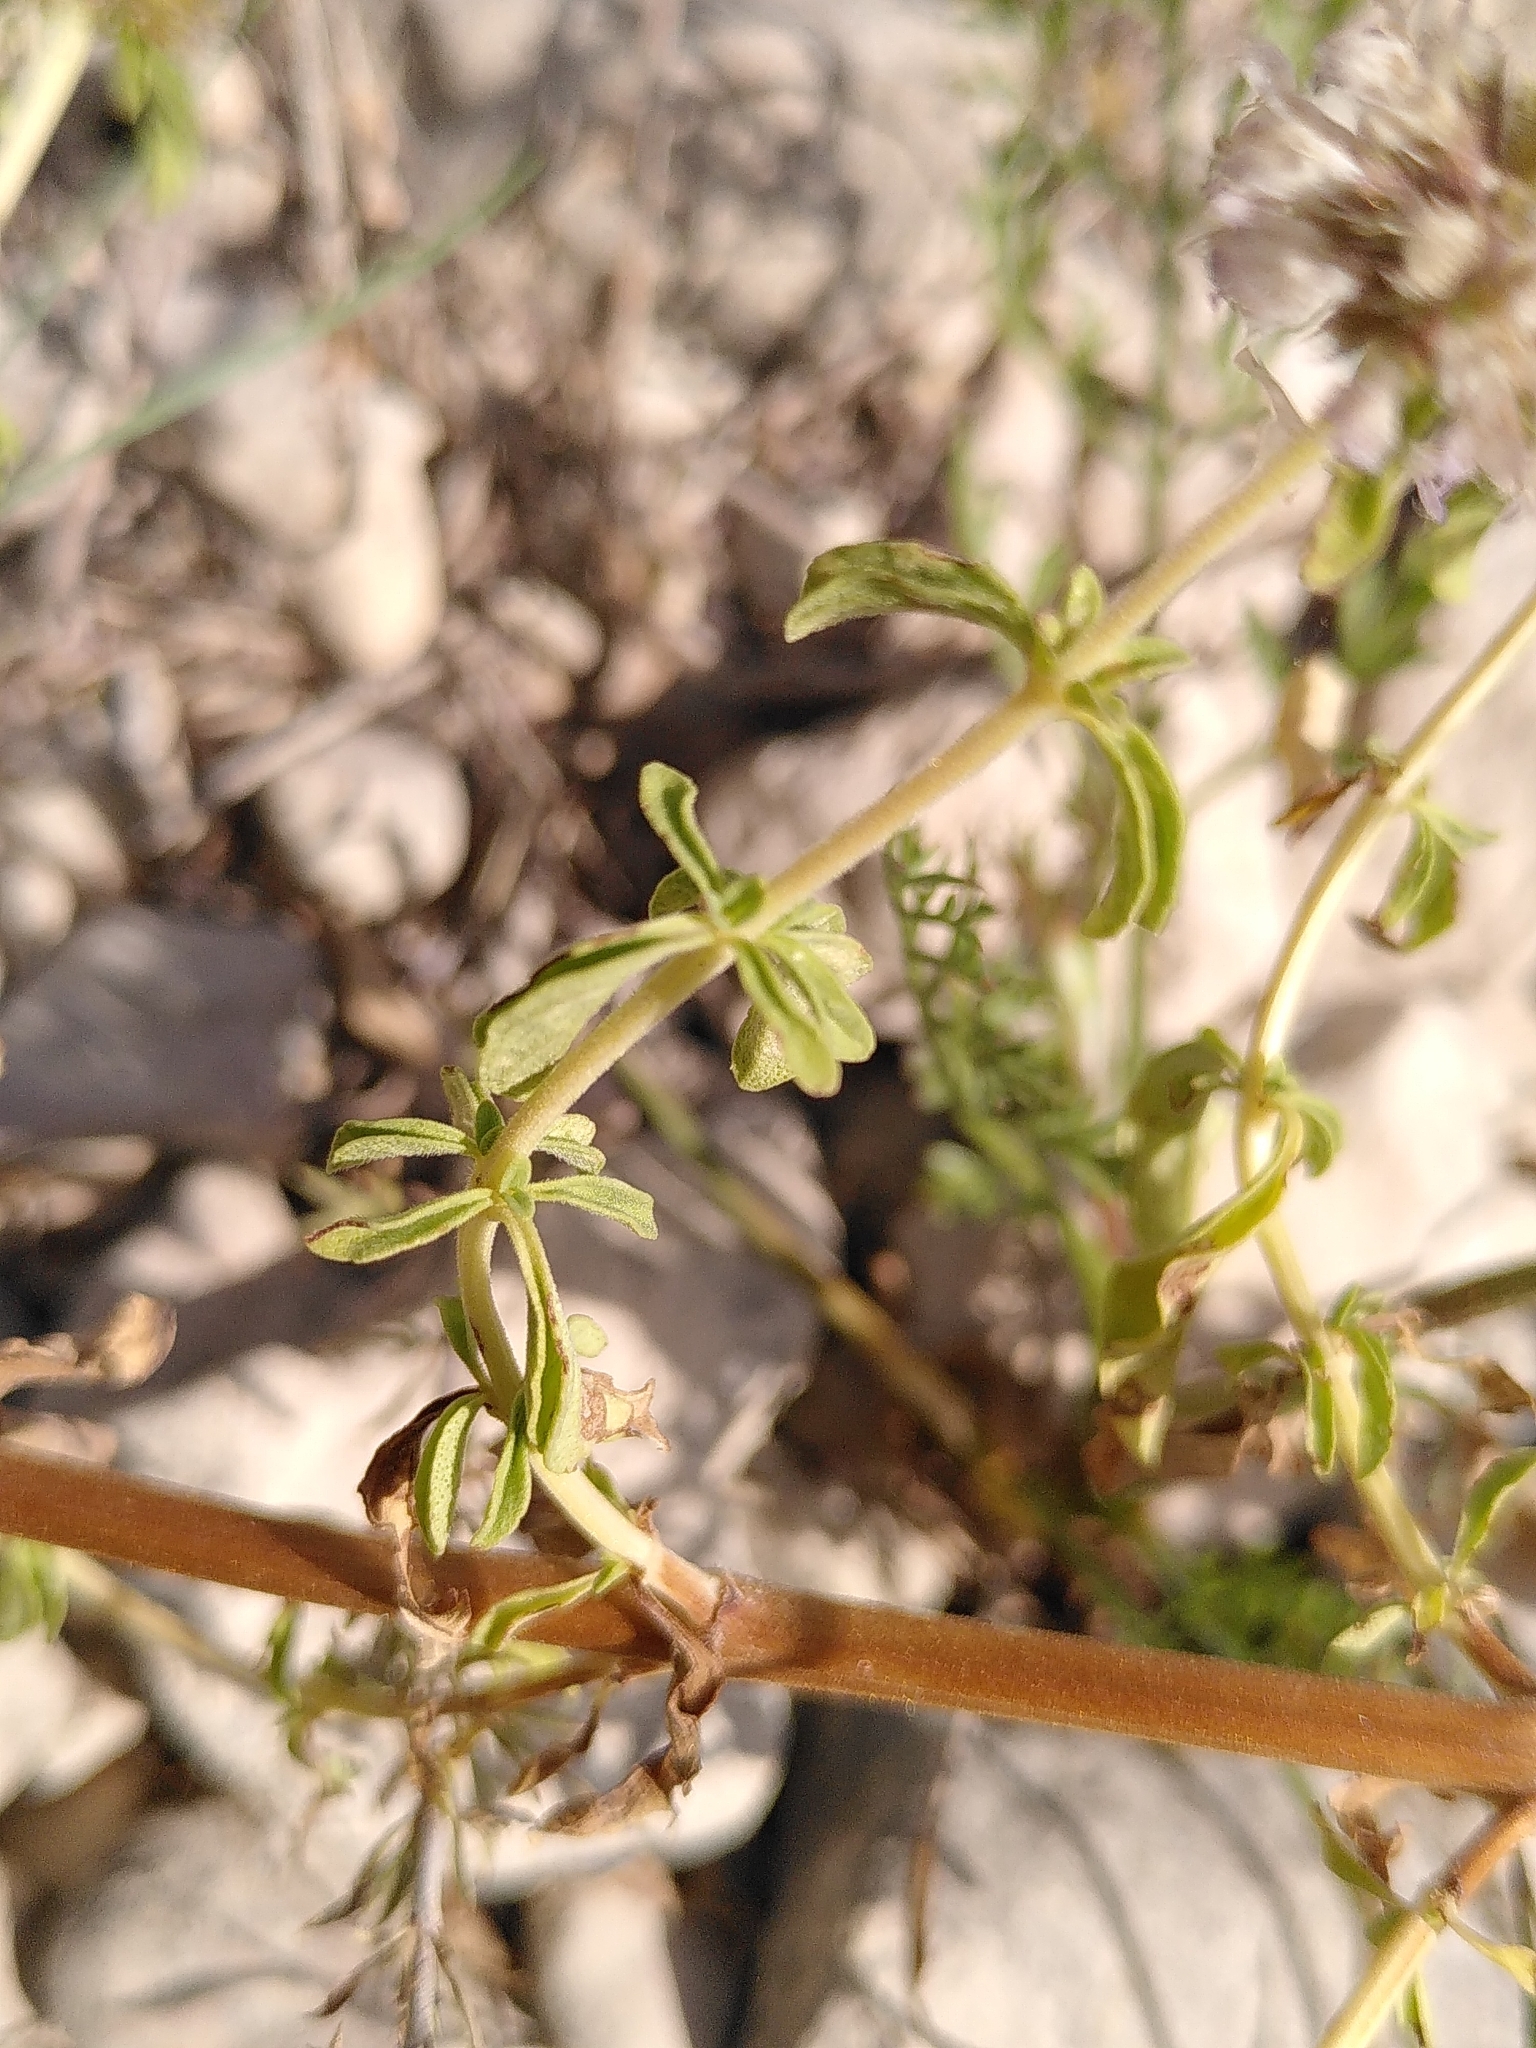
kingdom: Plantae
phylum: Tracheophyta
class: Magnoliopsida
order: Lamiales
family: Lamiaceae
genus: Mentha
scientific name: Mentha pulegium
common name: Pennyroyal
